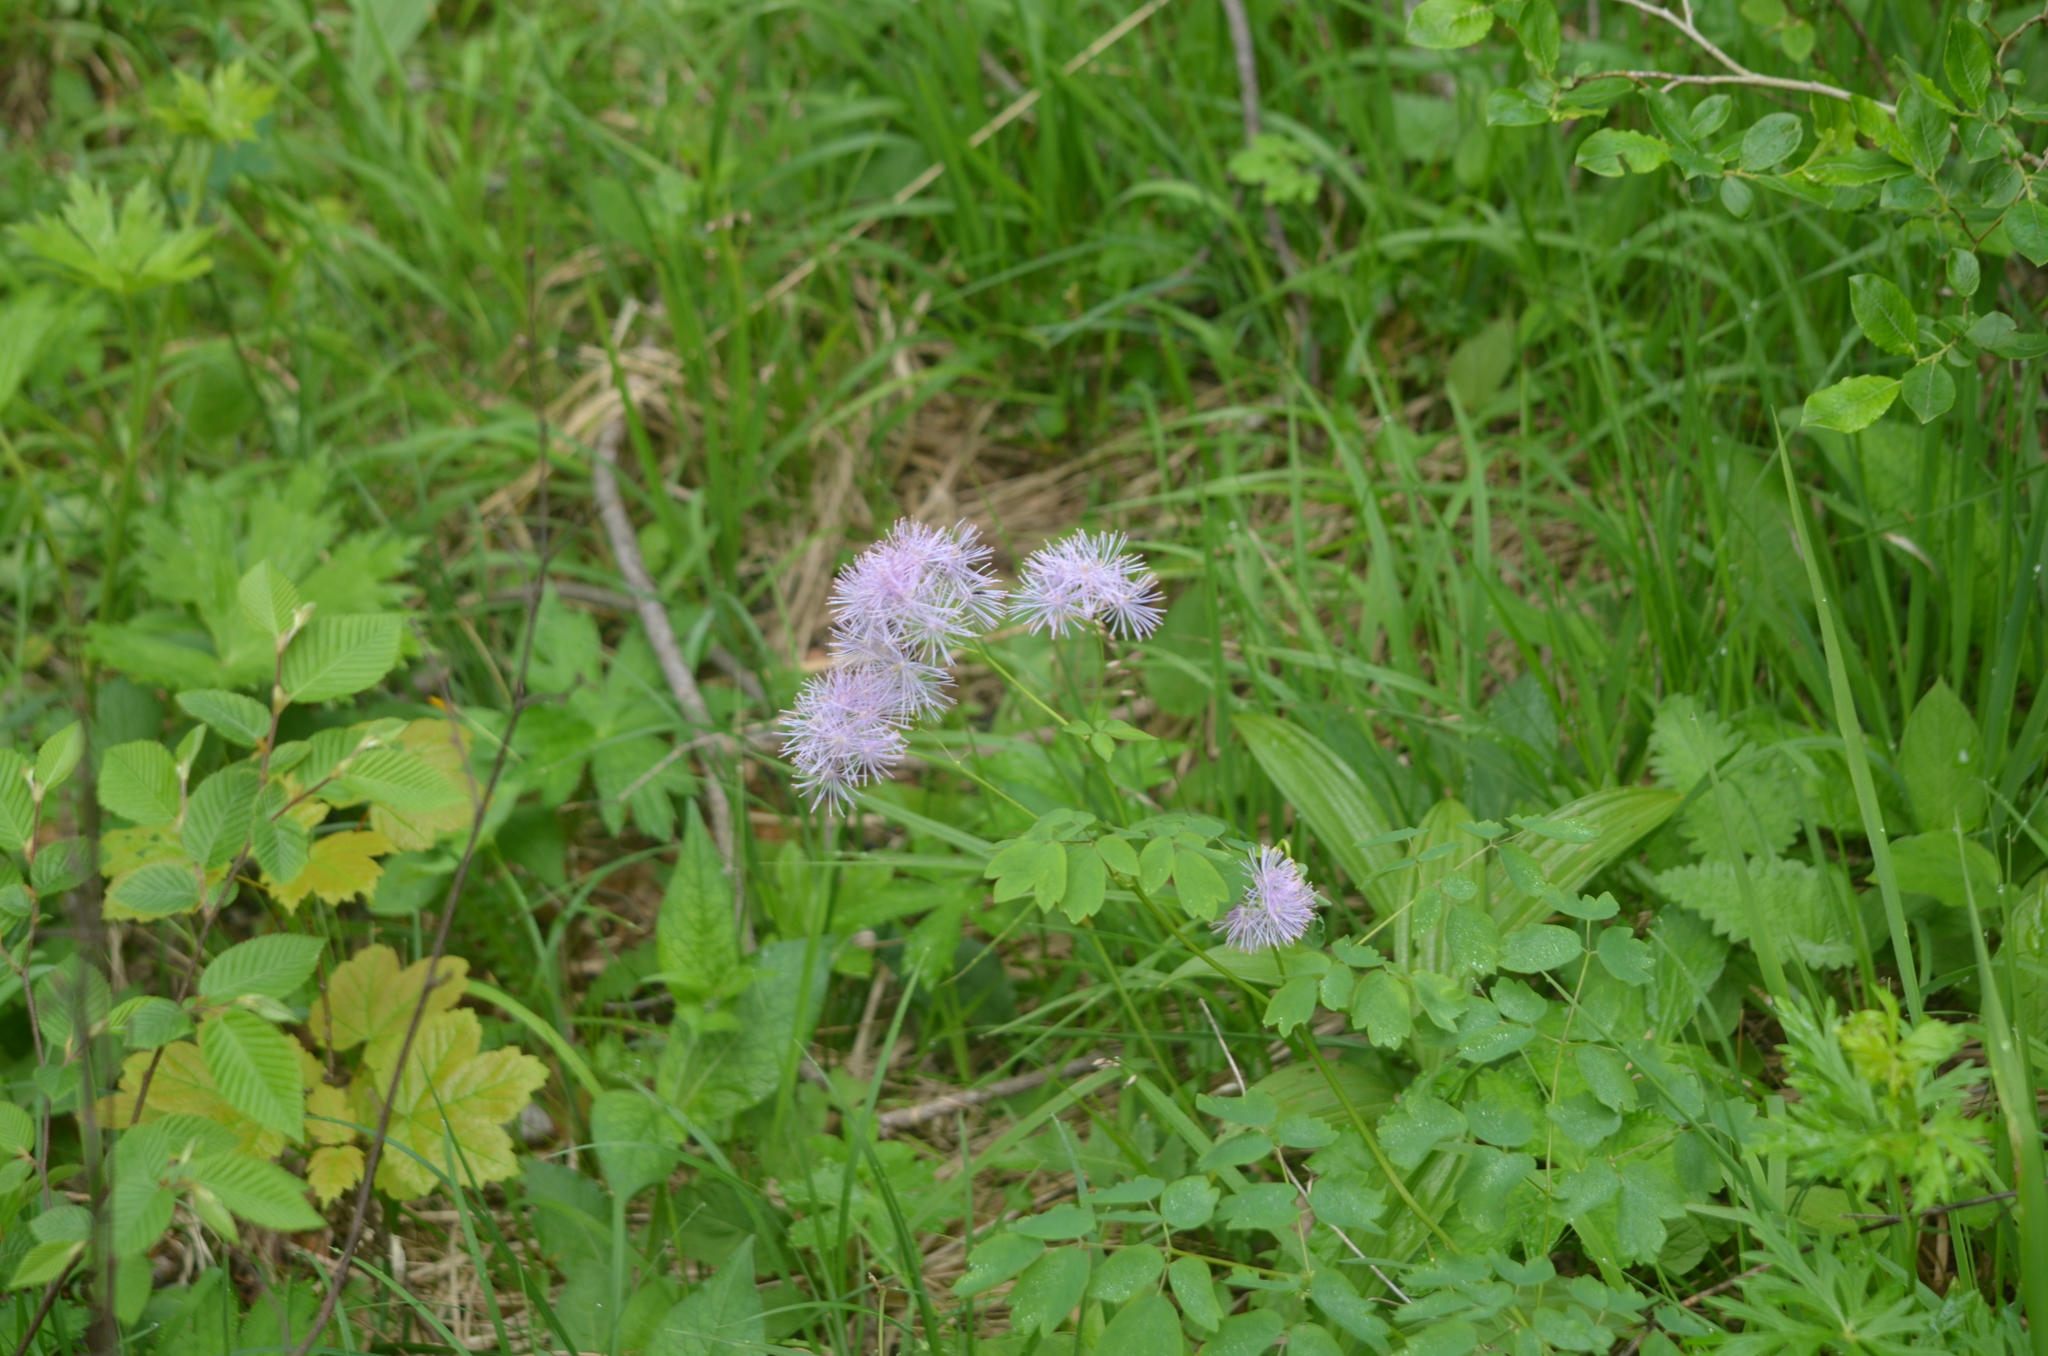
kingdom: Plantae
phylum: Tracheophyta
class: Magnoliopsida
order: Ranunculales
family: Ranunculaceae
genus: Thalictrum
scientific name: Thalictrum aquilegiifolium
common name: French meadow-rue
